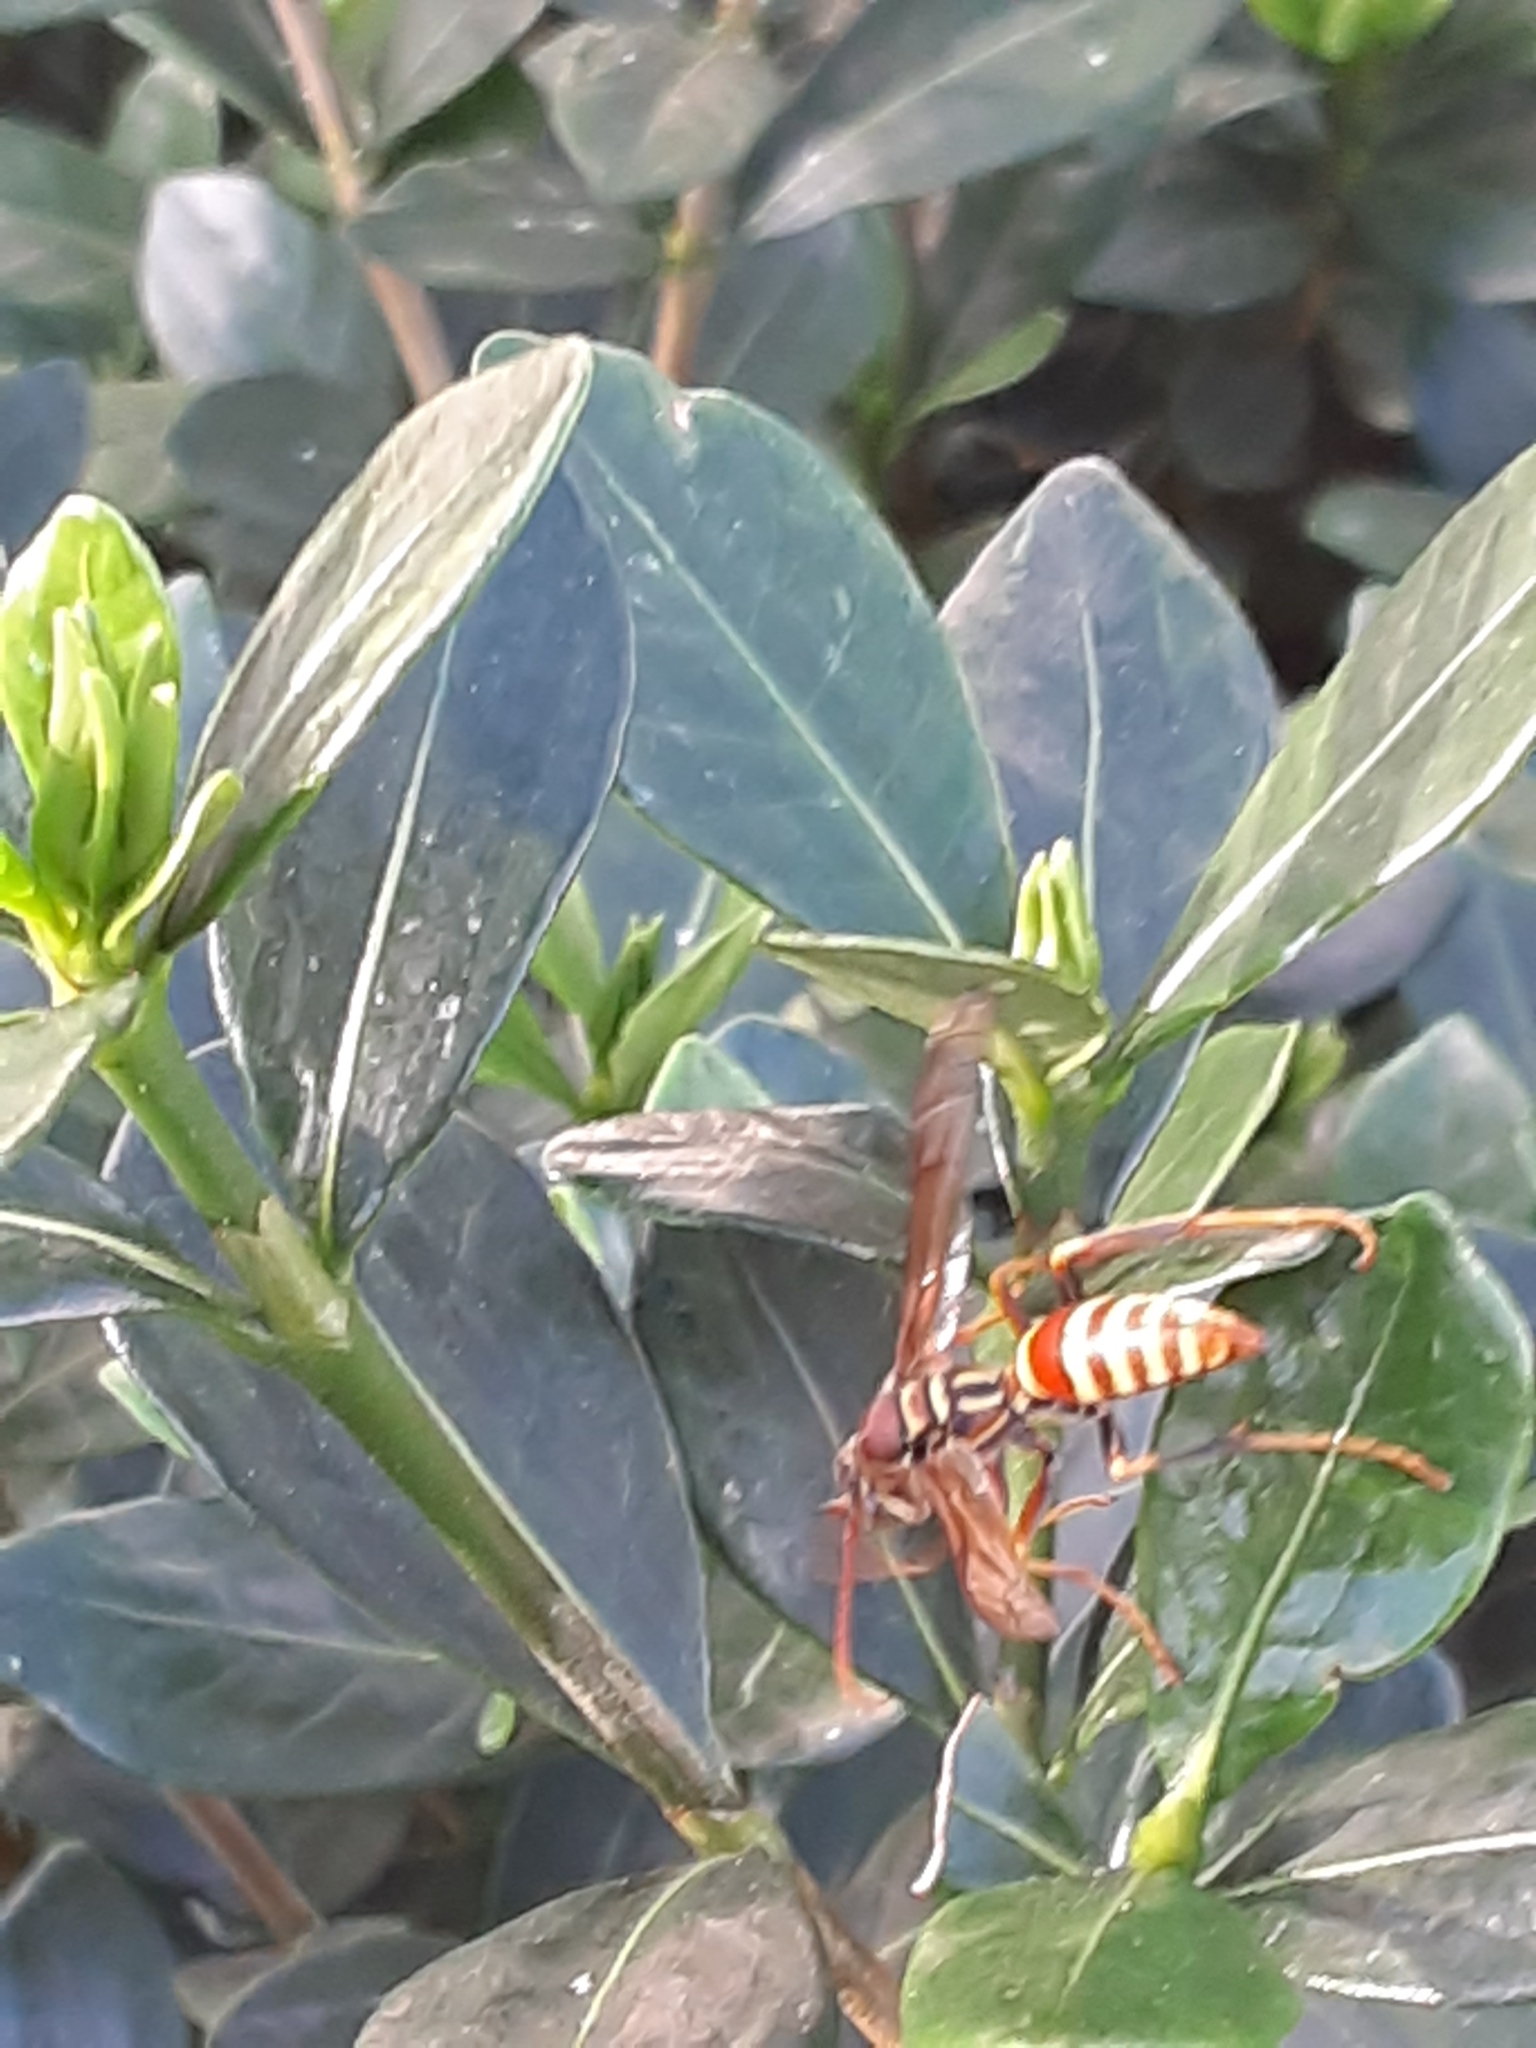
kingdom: Animalia
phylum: Arthropoda
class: Insecta
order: Hymenoptera
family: Eumenidae
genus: Polistes
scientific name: Polistes exclamans
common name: Paper wasp
